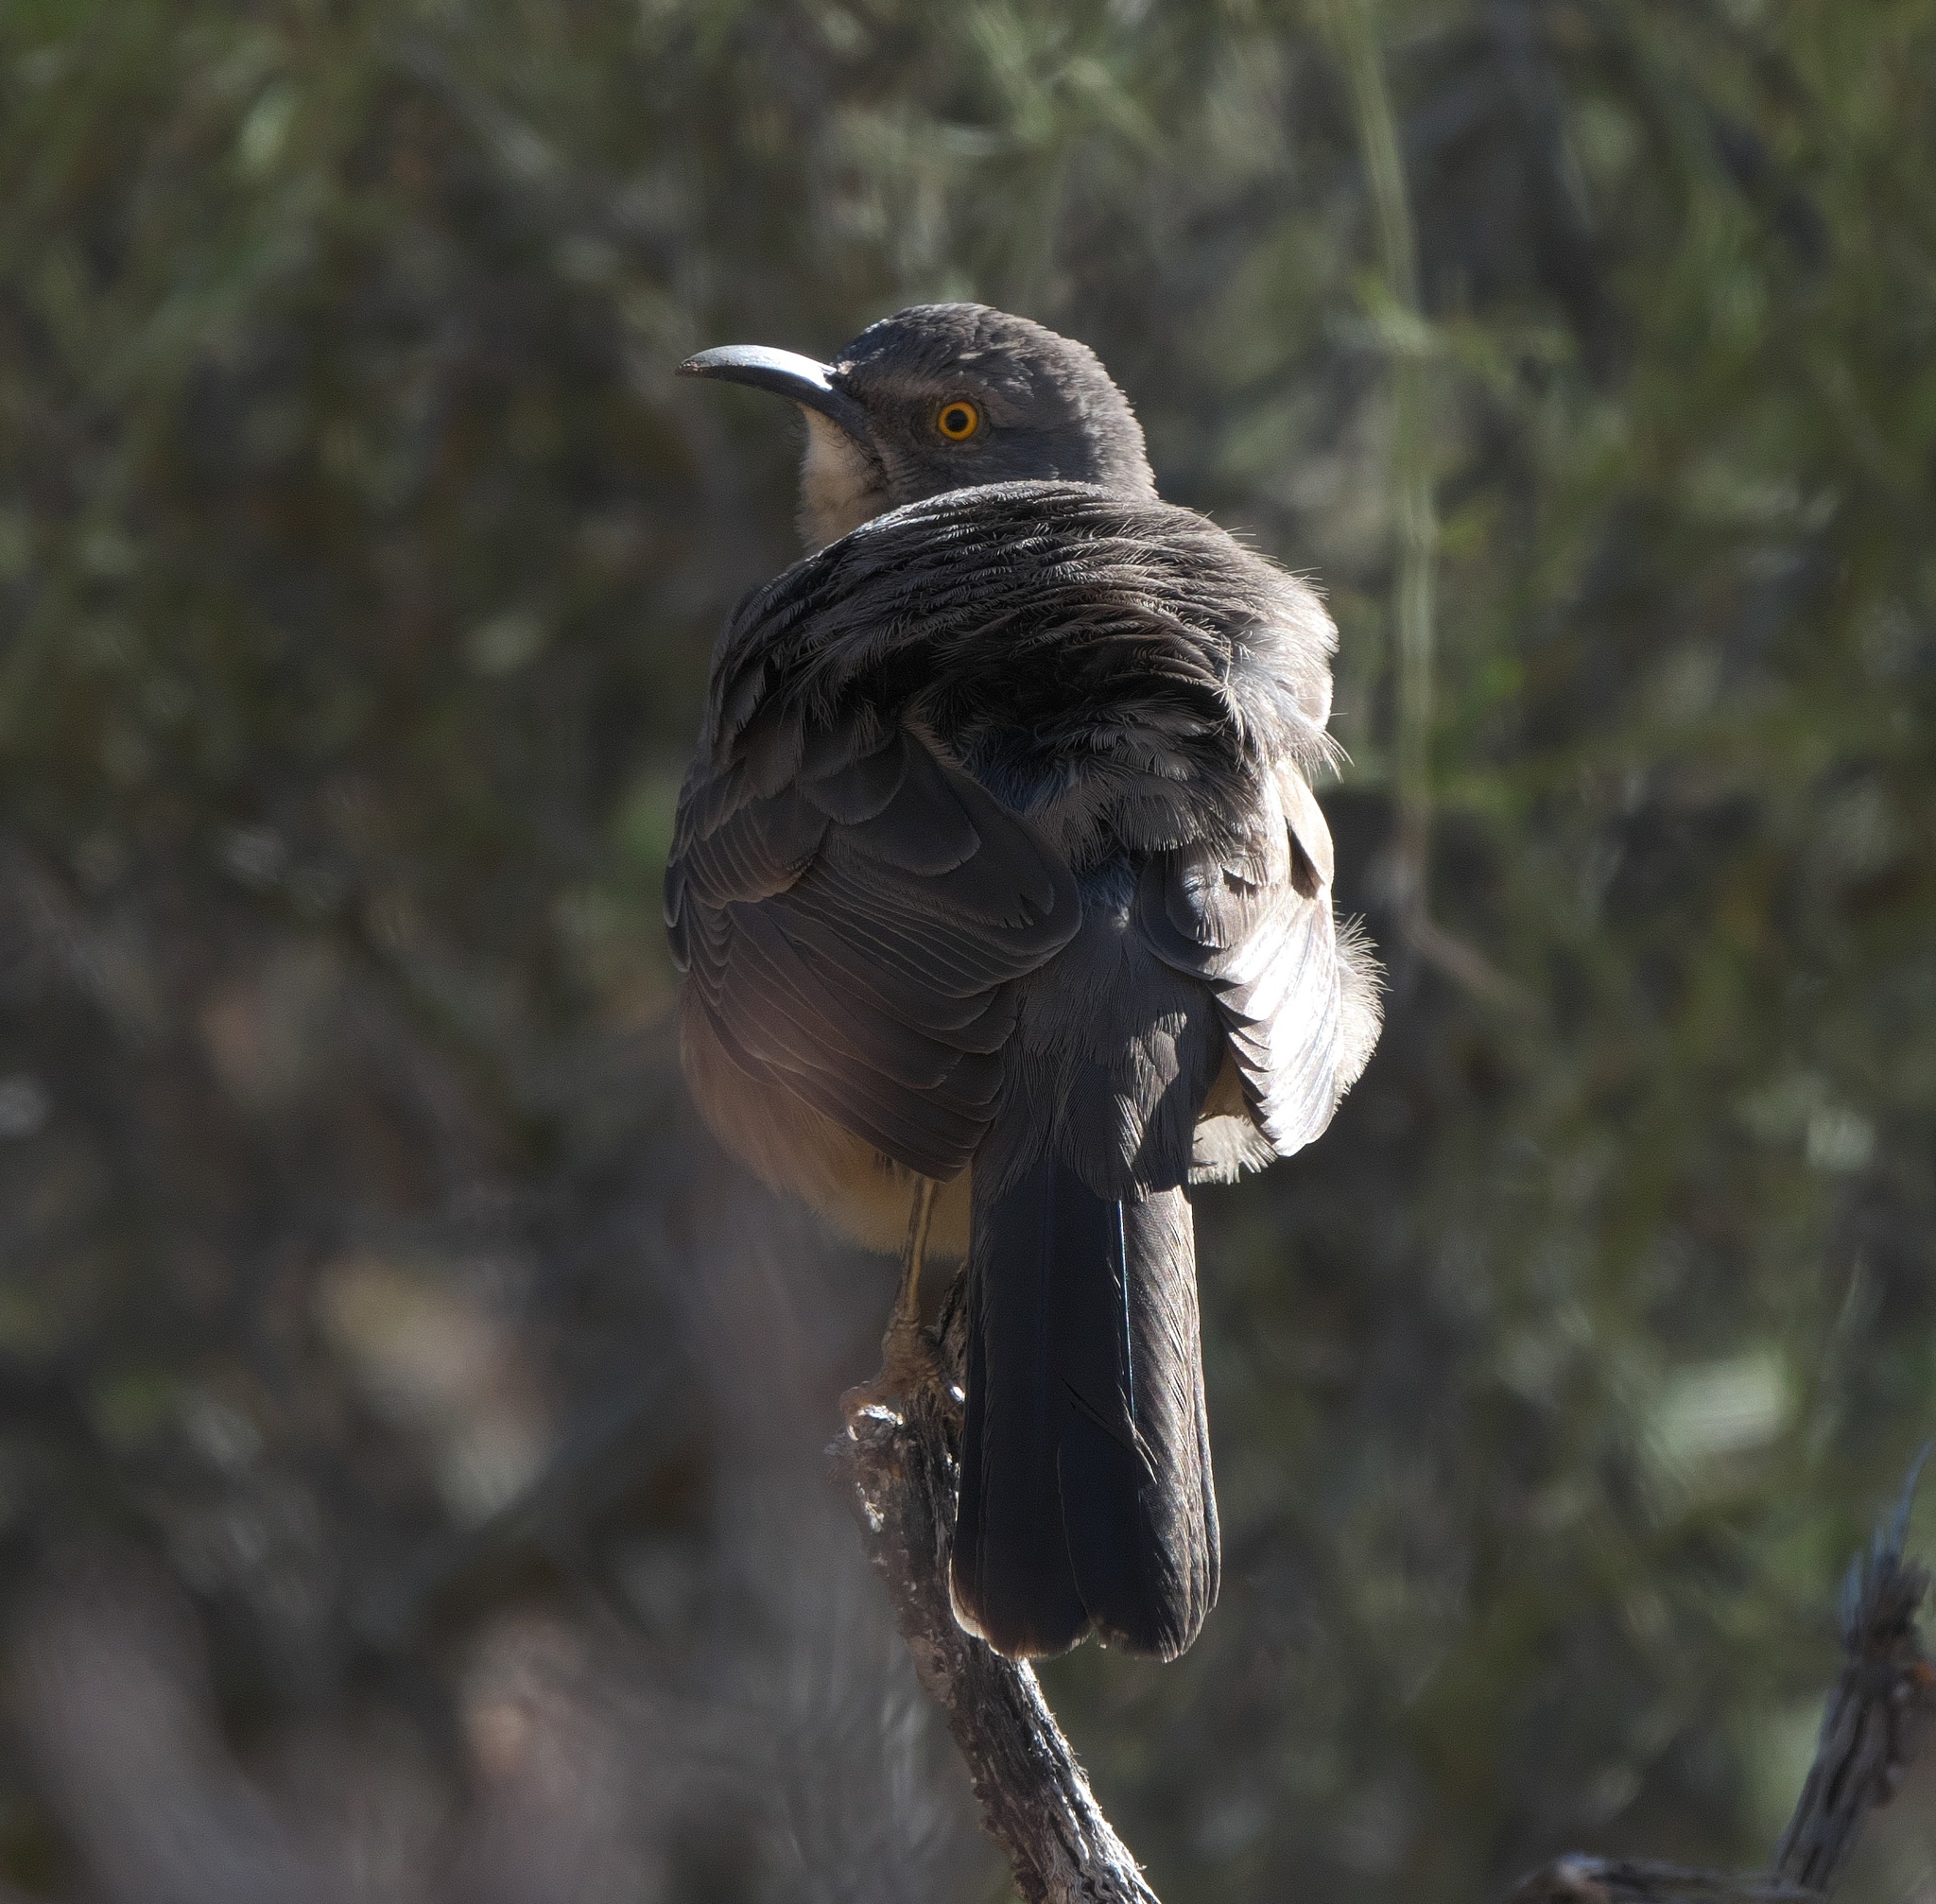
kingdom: Animalia
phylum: Chordata
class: Aves
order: Passeriformes
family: Mimidae
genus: Toxostoma
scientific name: Toxostoma curvirostre
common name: Curve-billed thrasher
